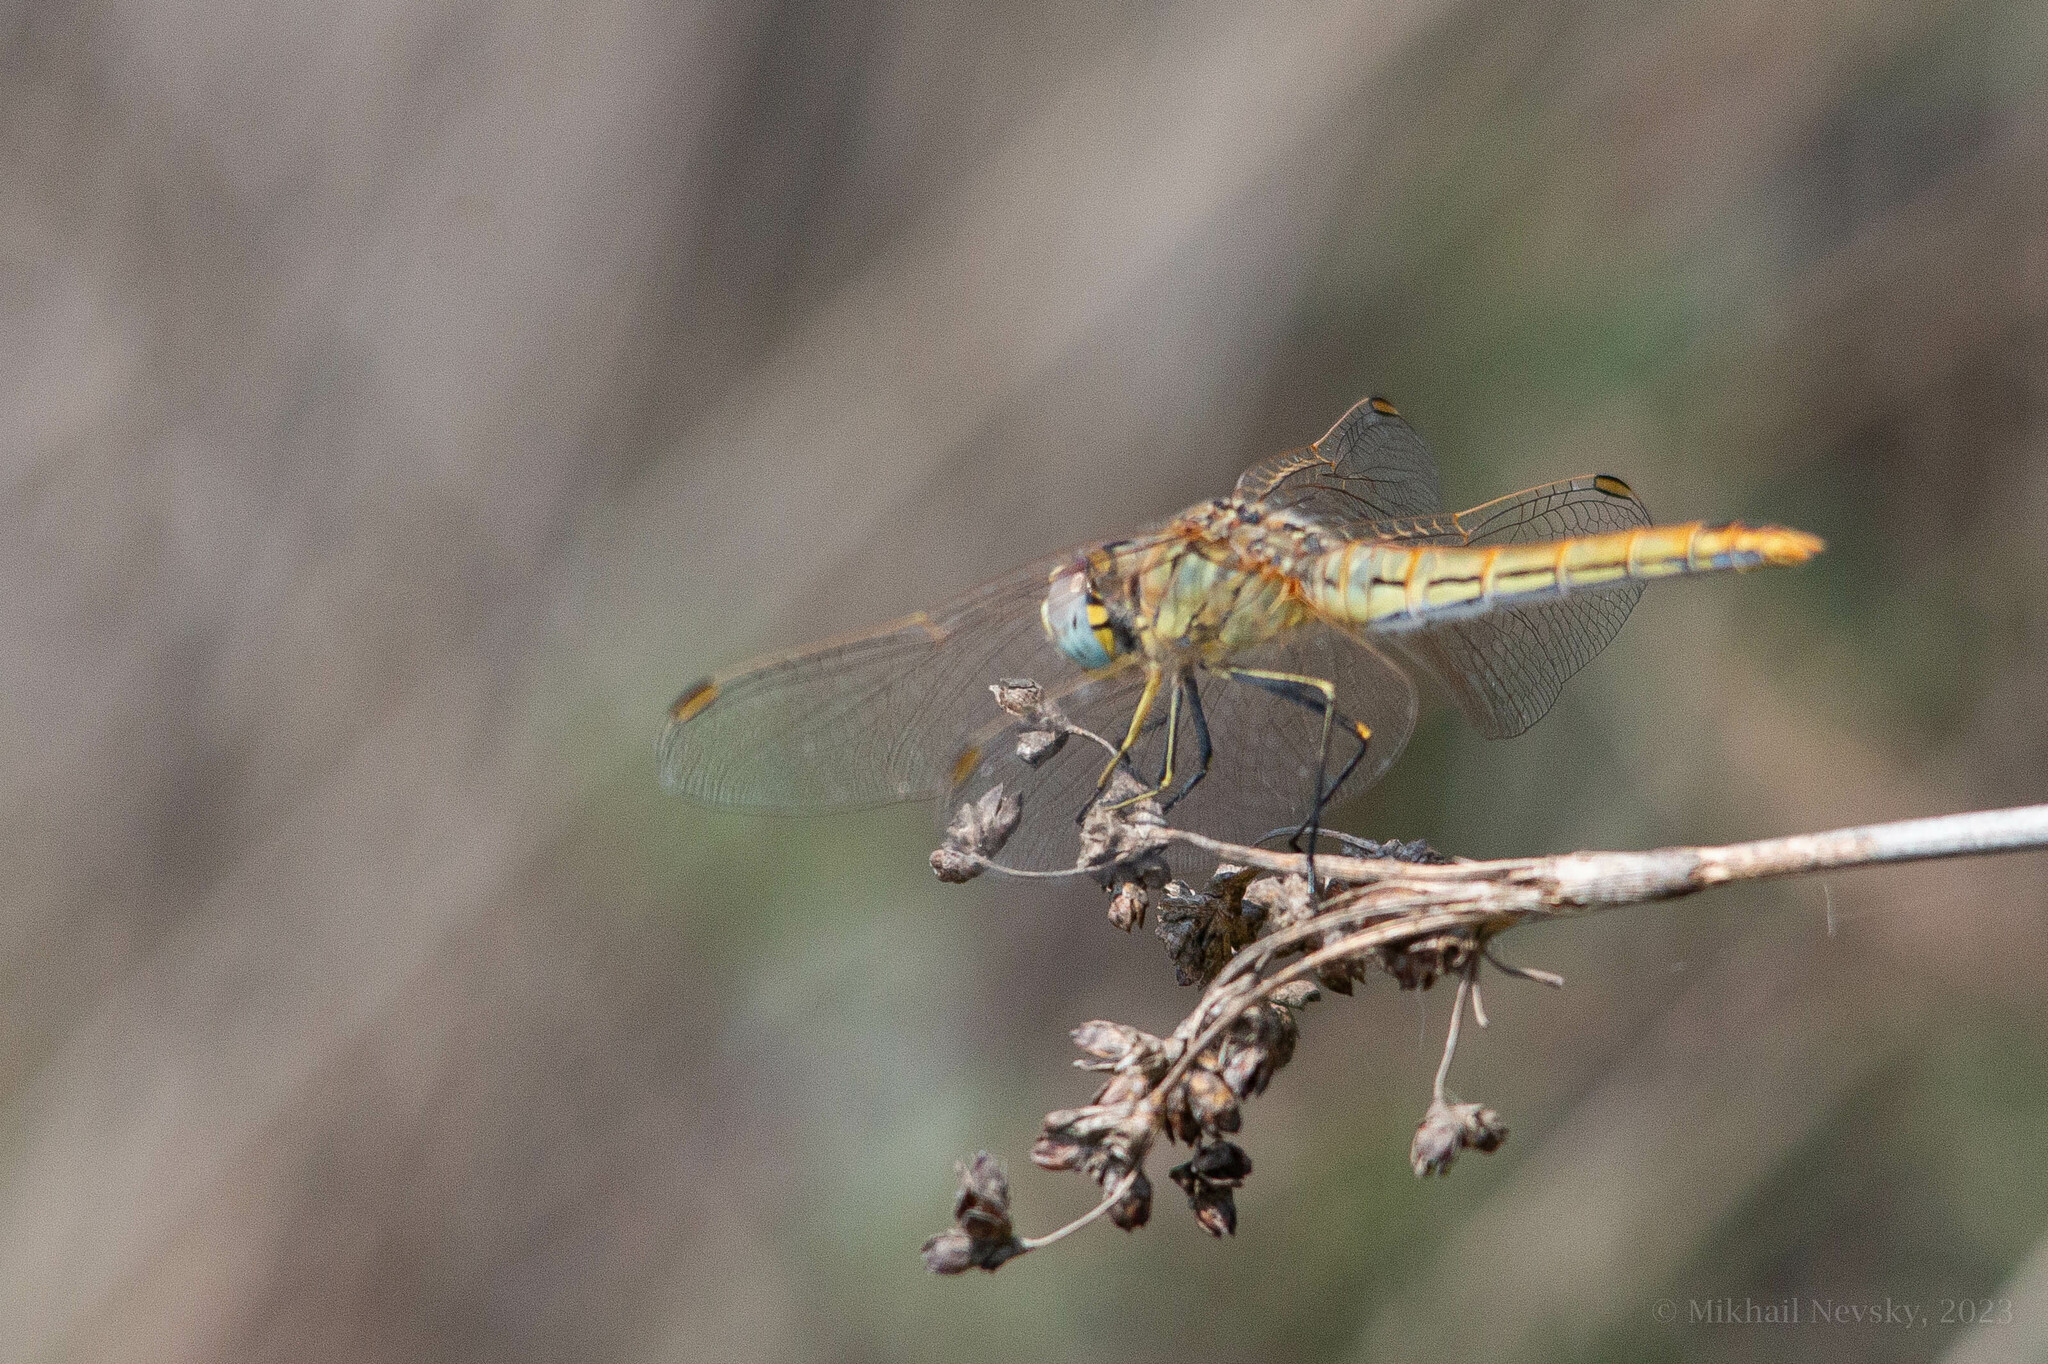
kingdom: Animalia
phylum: Arthropoda
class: Insecta
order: Odonata
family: Libellulidae
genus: Sympetrum
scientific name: Sympetrum fonscolombii
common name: Red-veined darter
